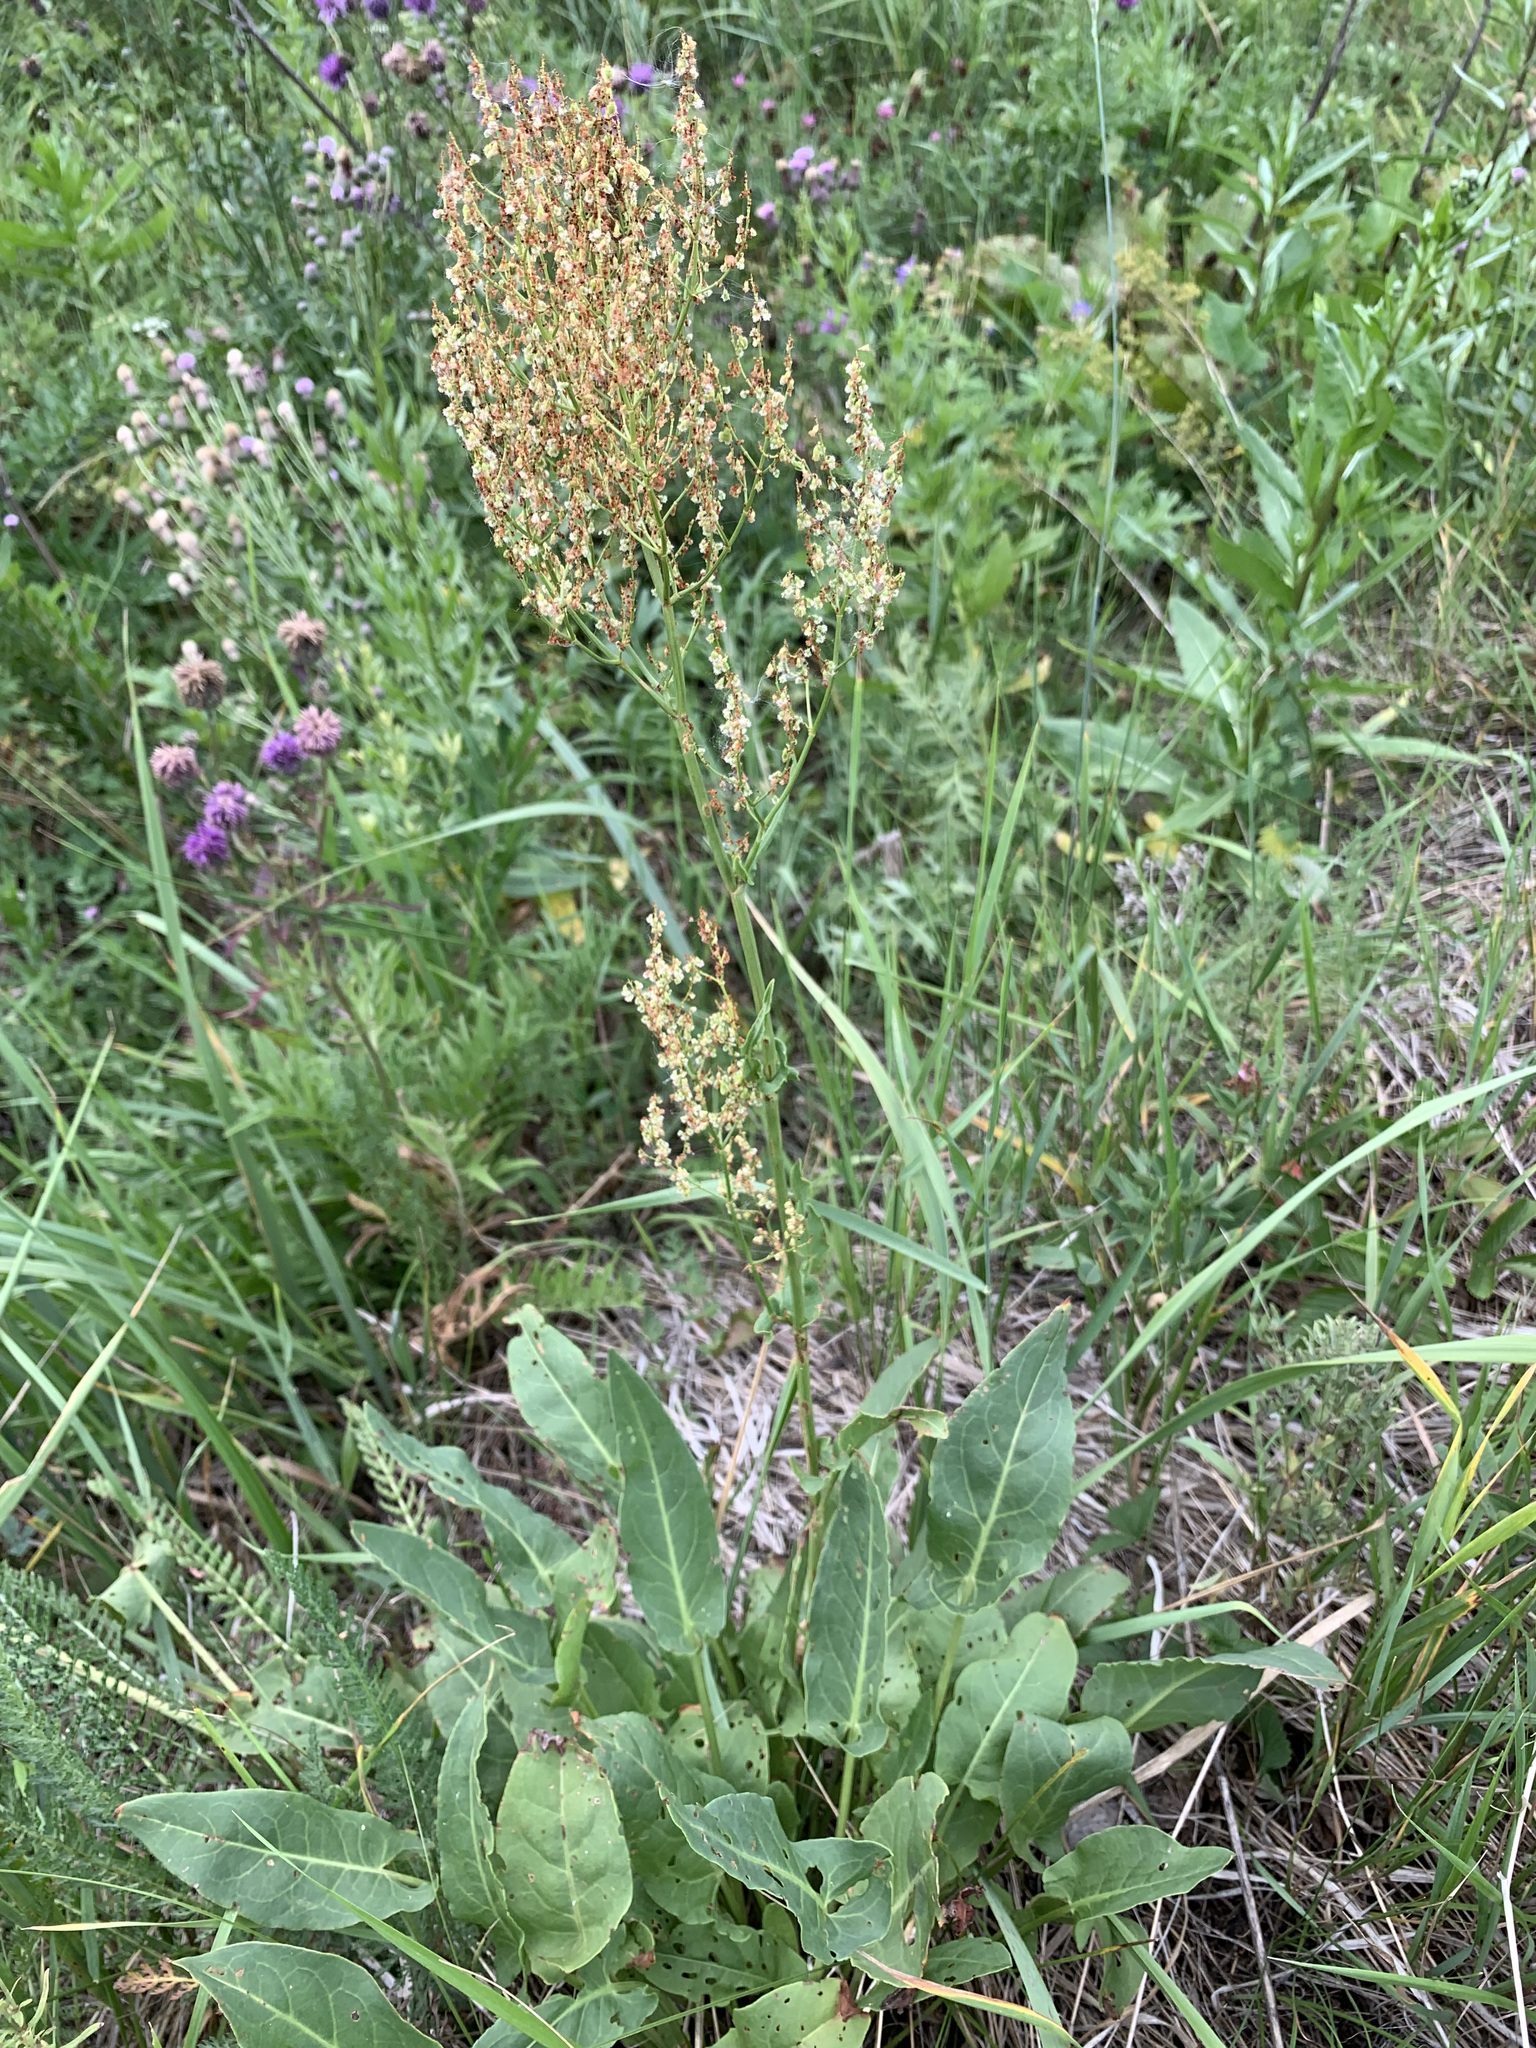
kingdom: Plantae
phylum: Tracheophyta
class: Magnoliopsida
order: Caryophyllales
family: Polygonaceae
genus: Rumex
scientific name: Rumex thyrsiflorus
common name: Garden sorrel
